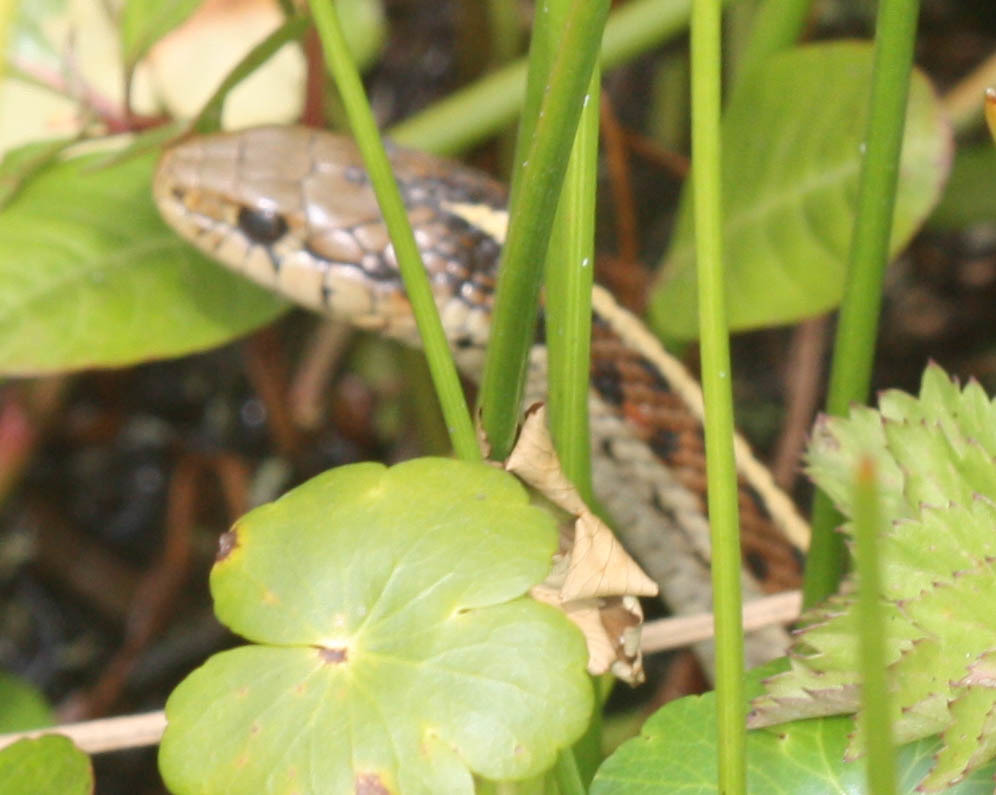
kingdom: Animalia
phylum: Chordata
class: Squamata
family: Colubridae
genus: Thamnophis
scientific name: Thamnophis elegans
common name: Western terrestrial garter snake
